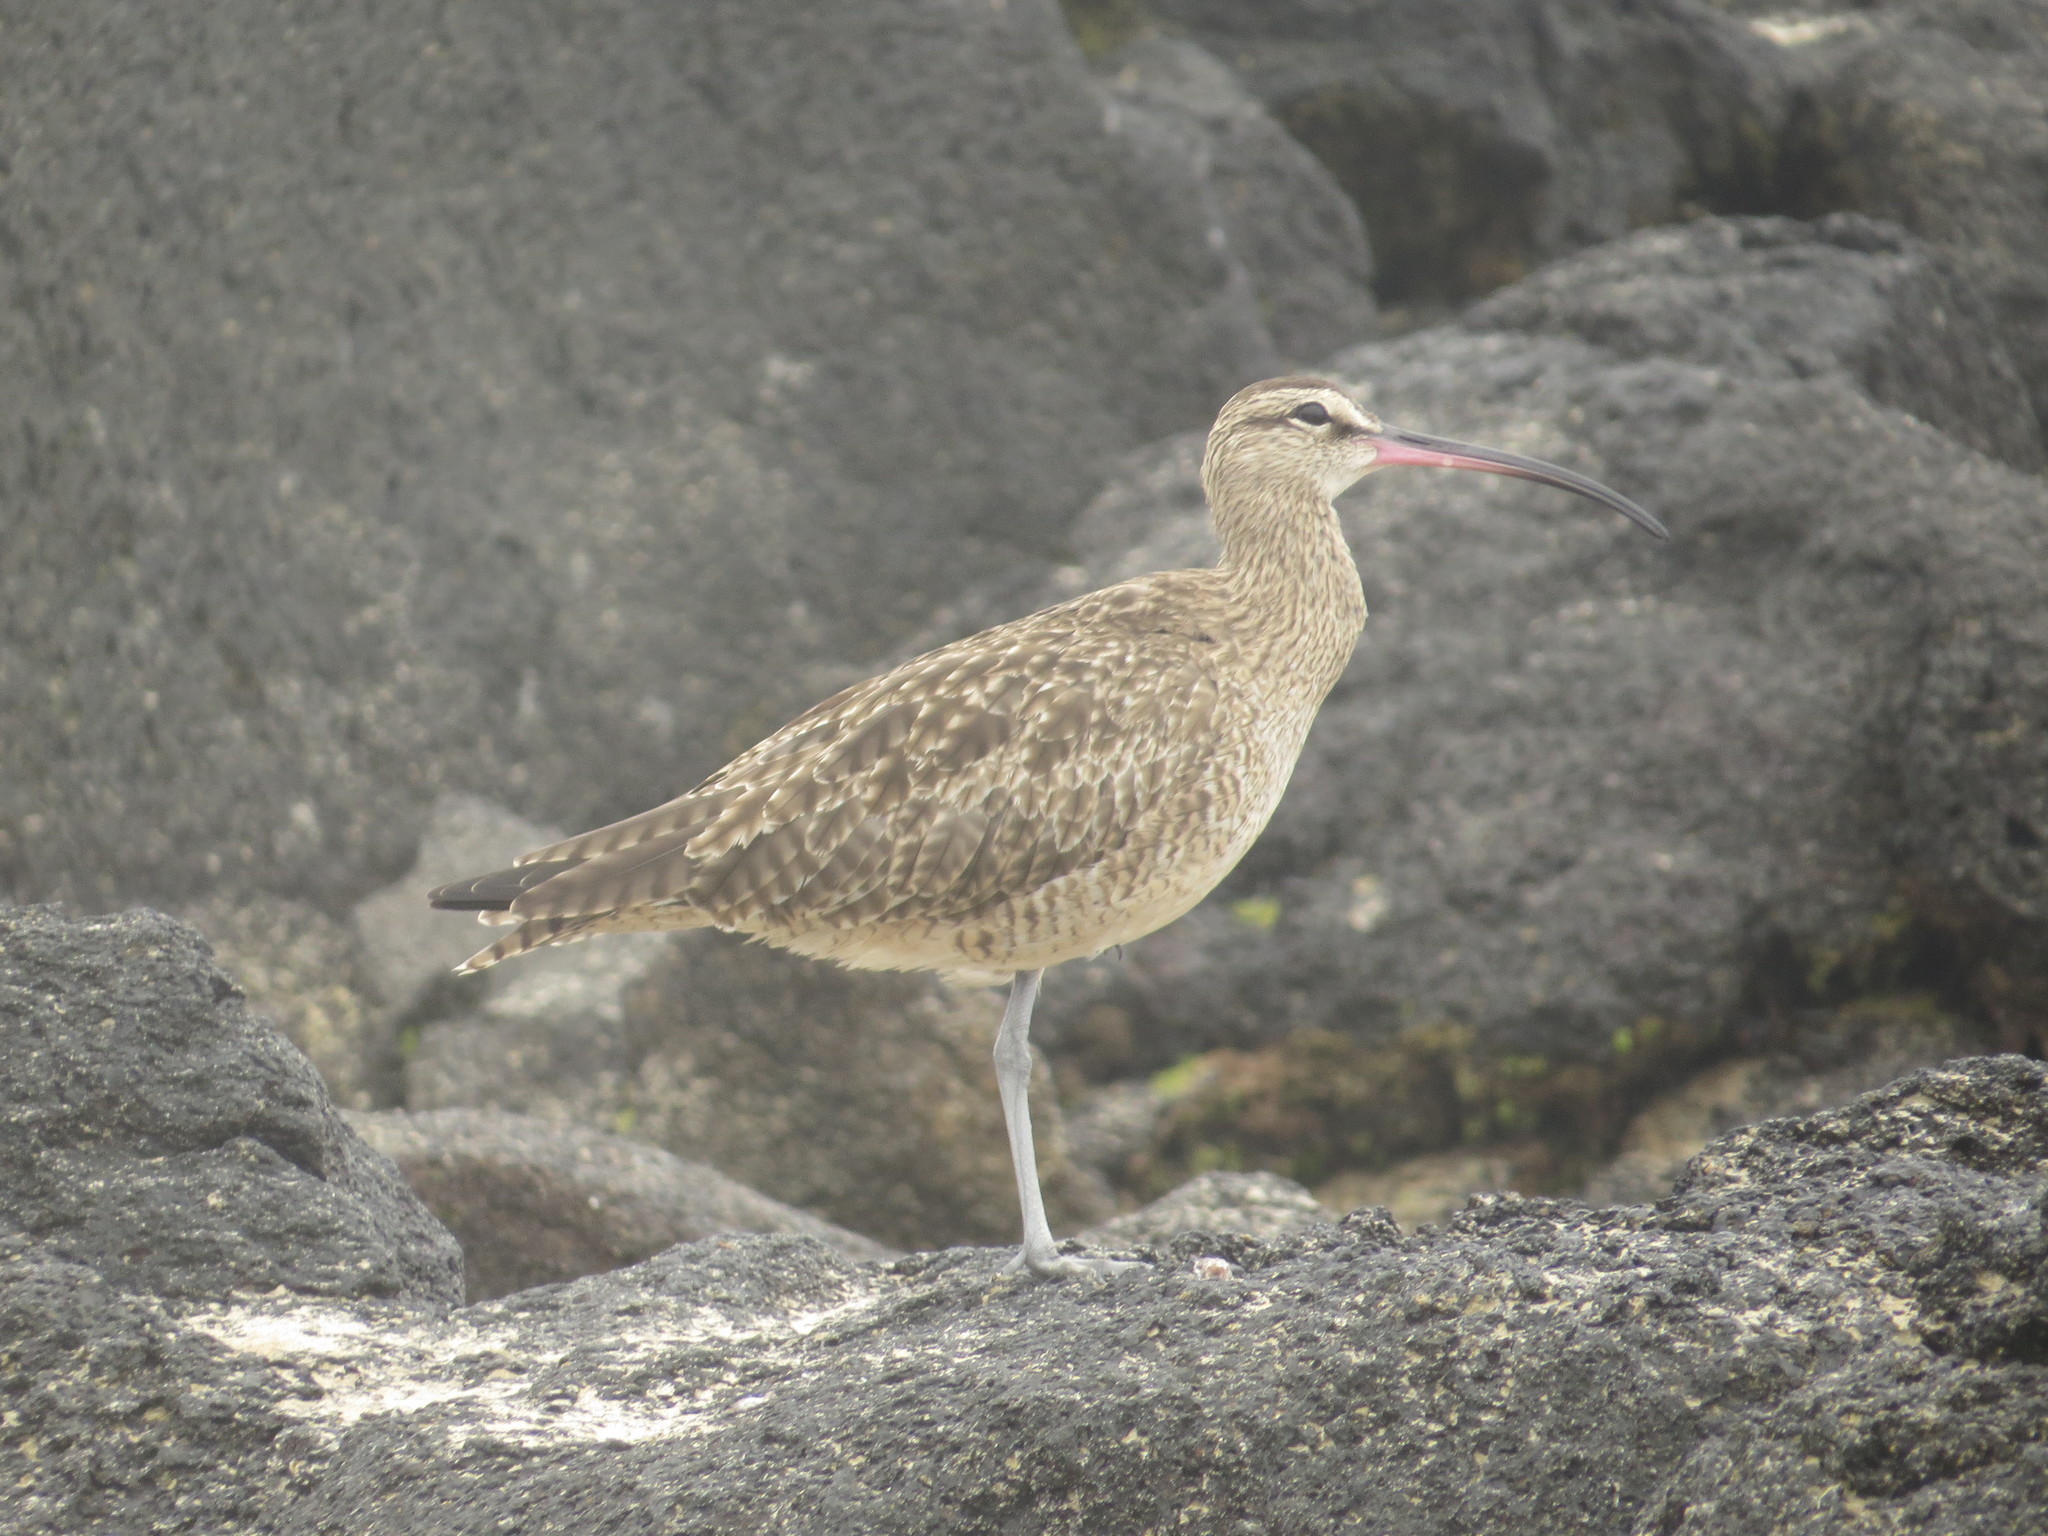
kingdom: Animalia
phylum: Chordata
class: Aves
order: Charadriiformes
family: Scolopacidae
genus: Numenius
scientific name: Numenius phaeopus
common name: Whimbrel
